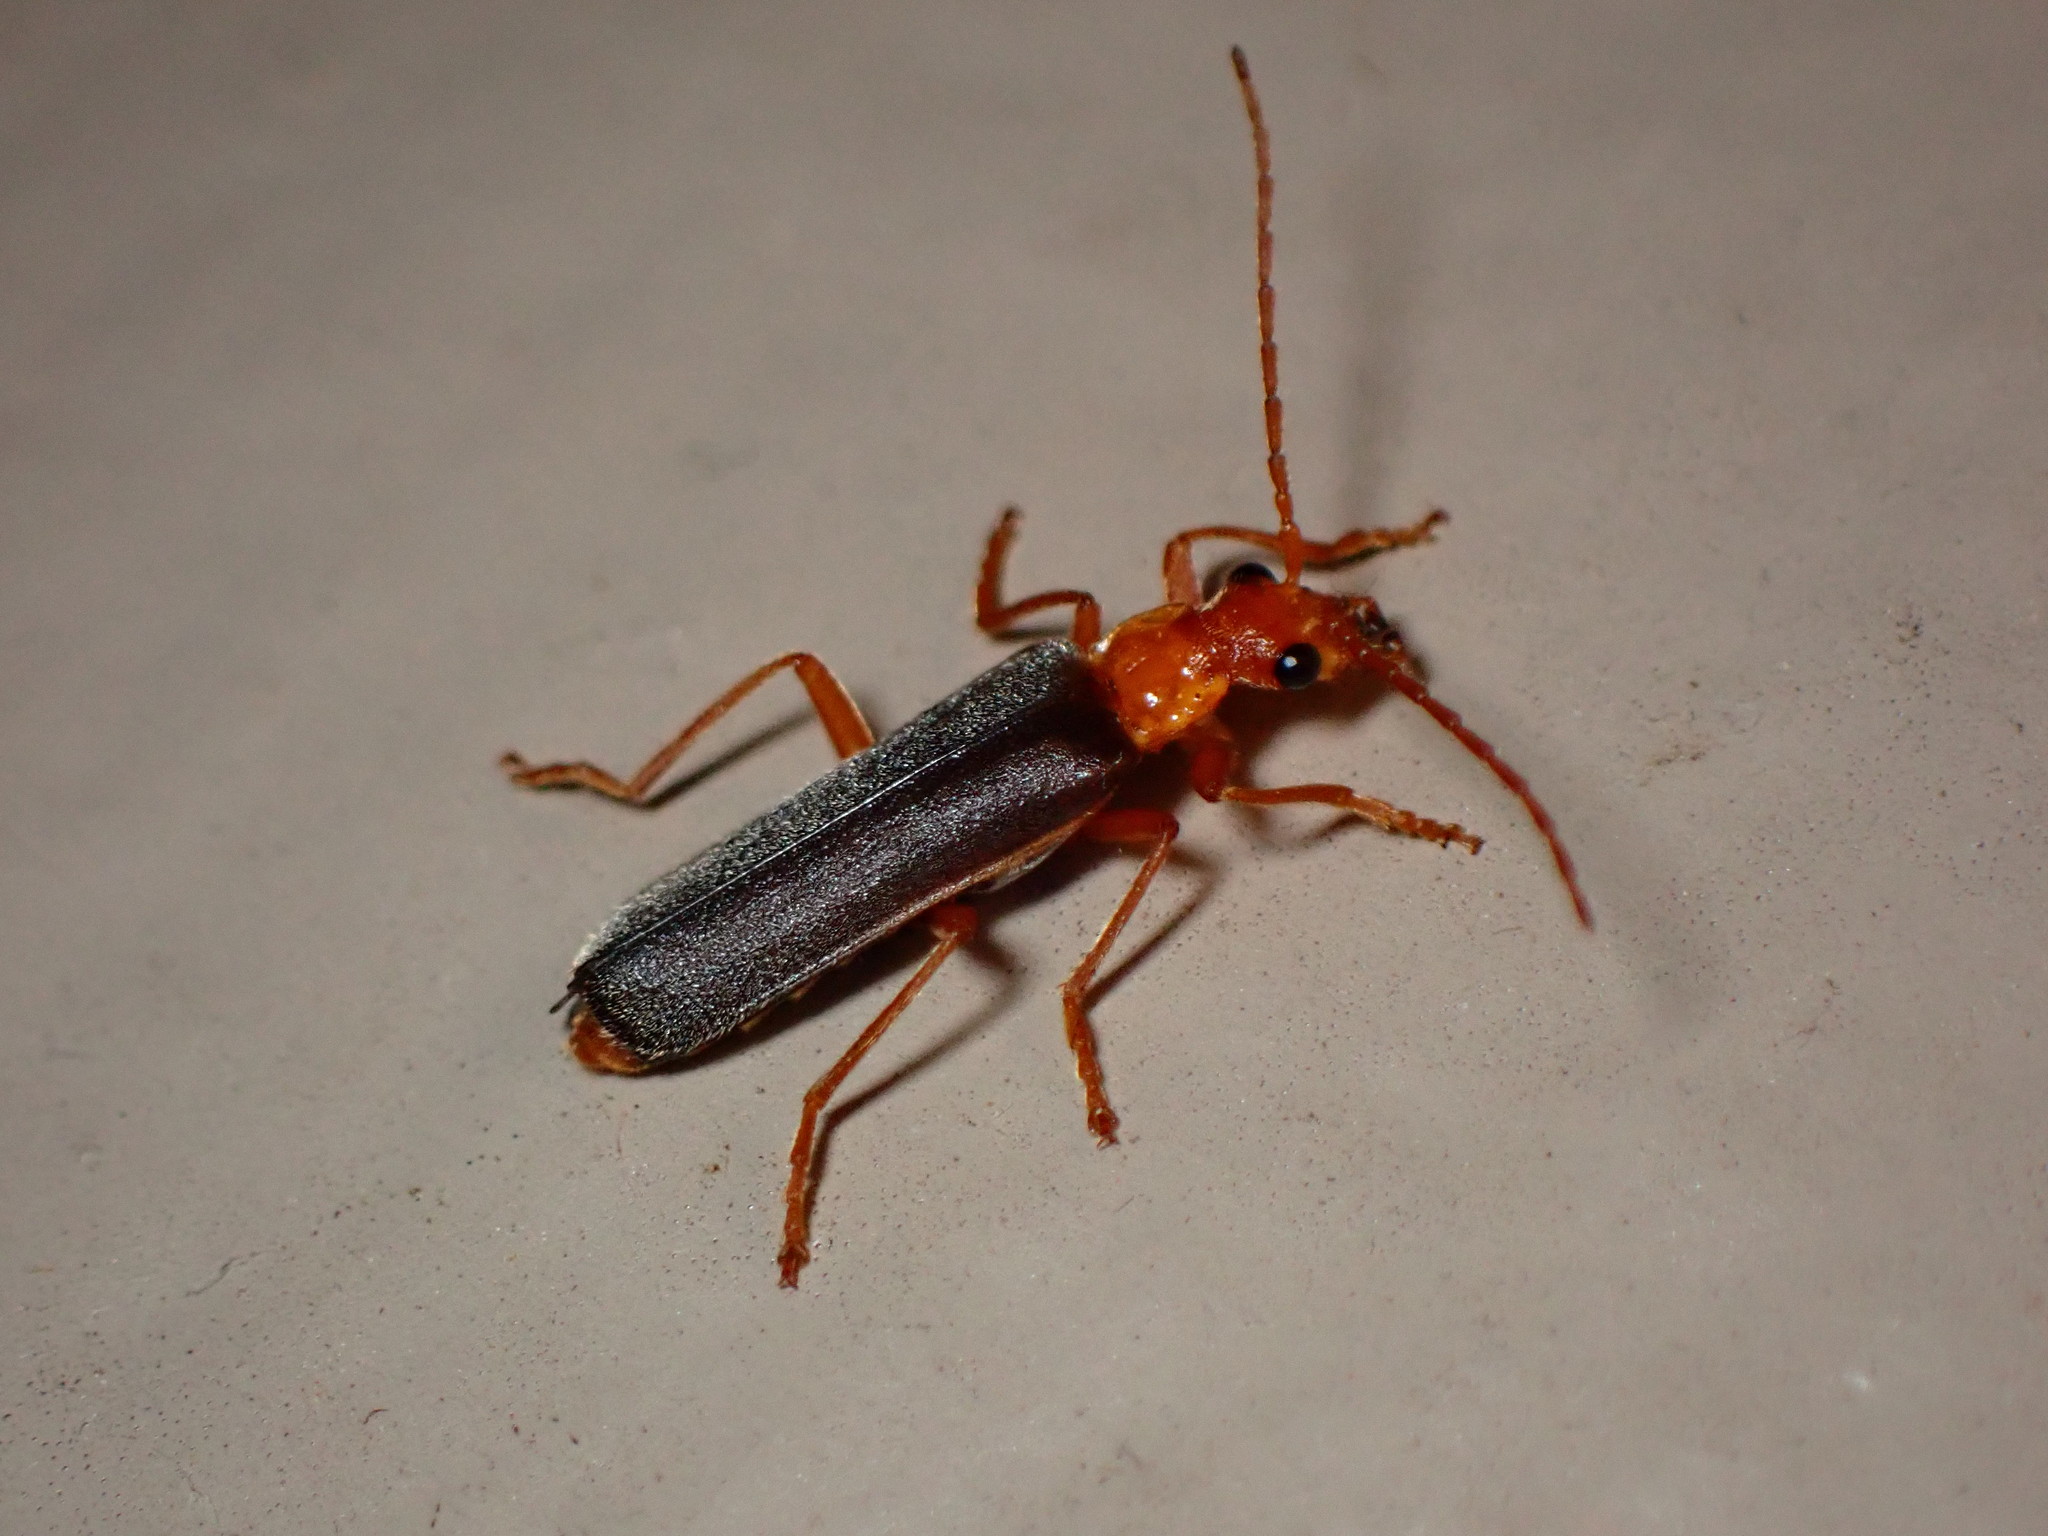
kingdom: Animalia
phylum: Arthropoda
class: Insecta
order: Coleoptera
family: Cantharidae
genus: Podabrus
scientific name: Podabrus pruinosus
